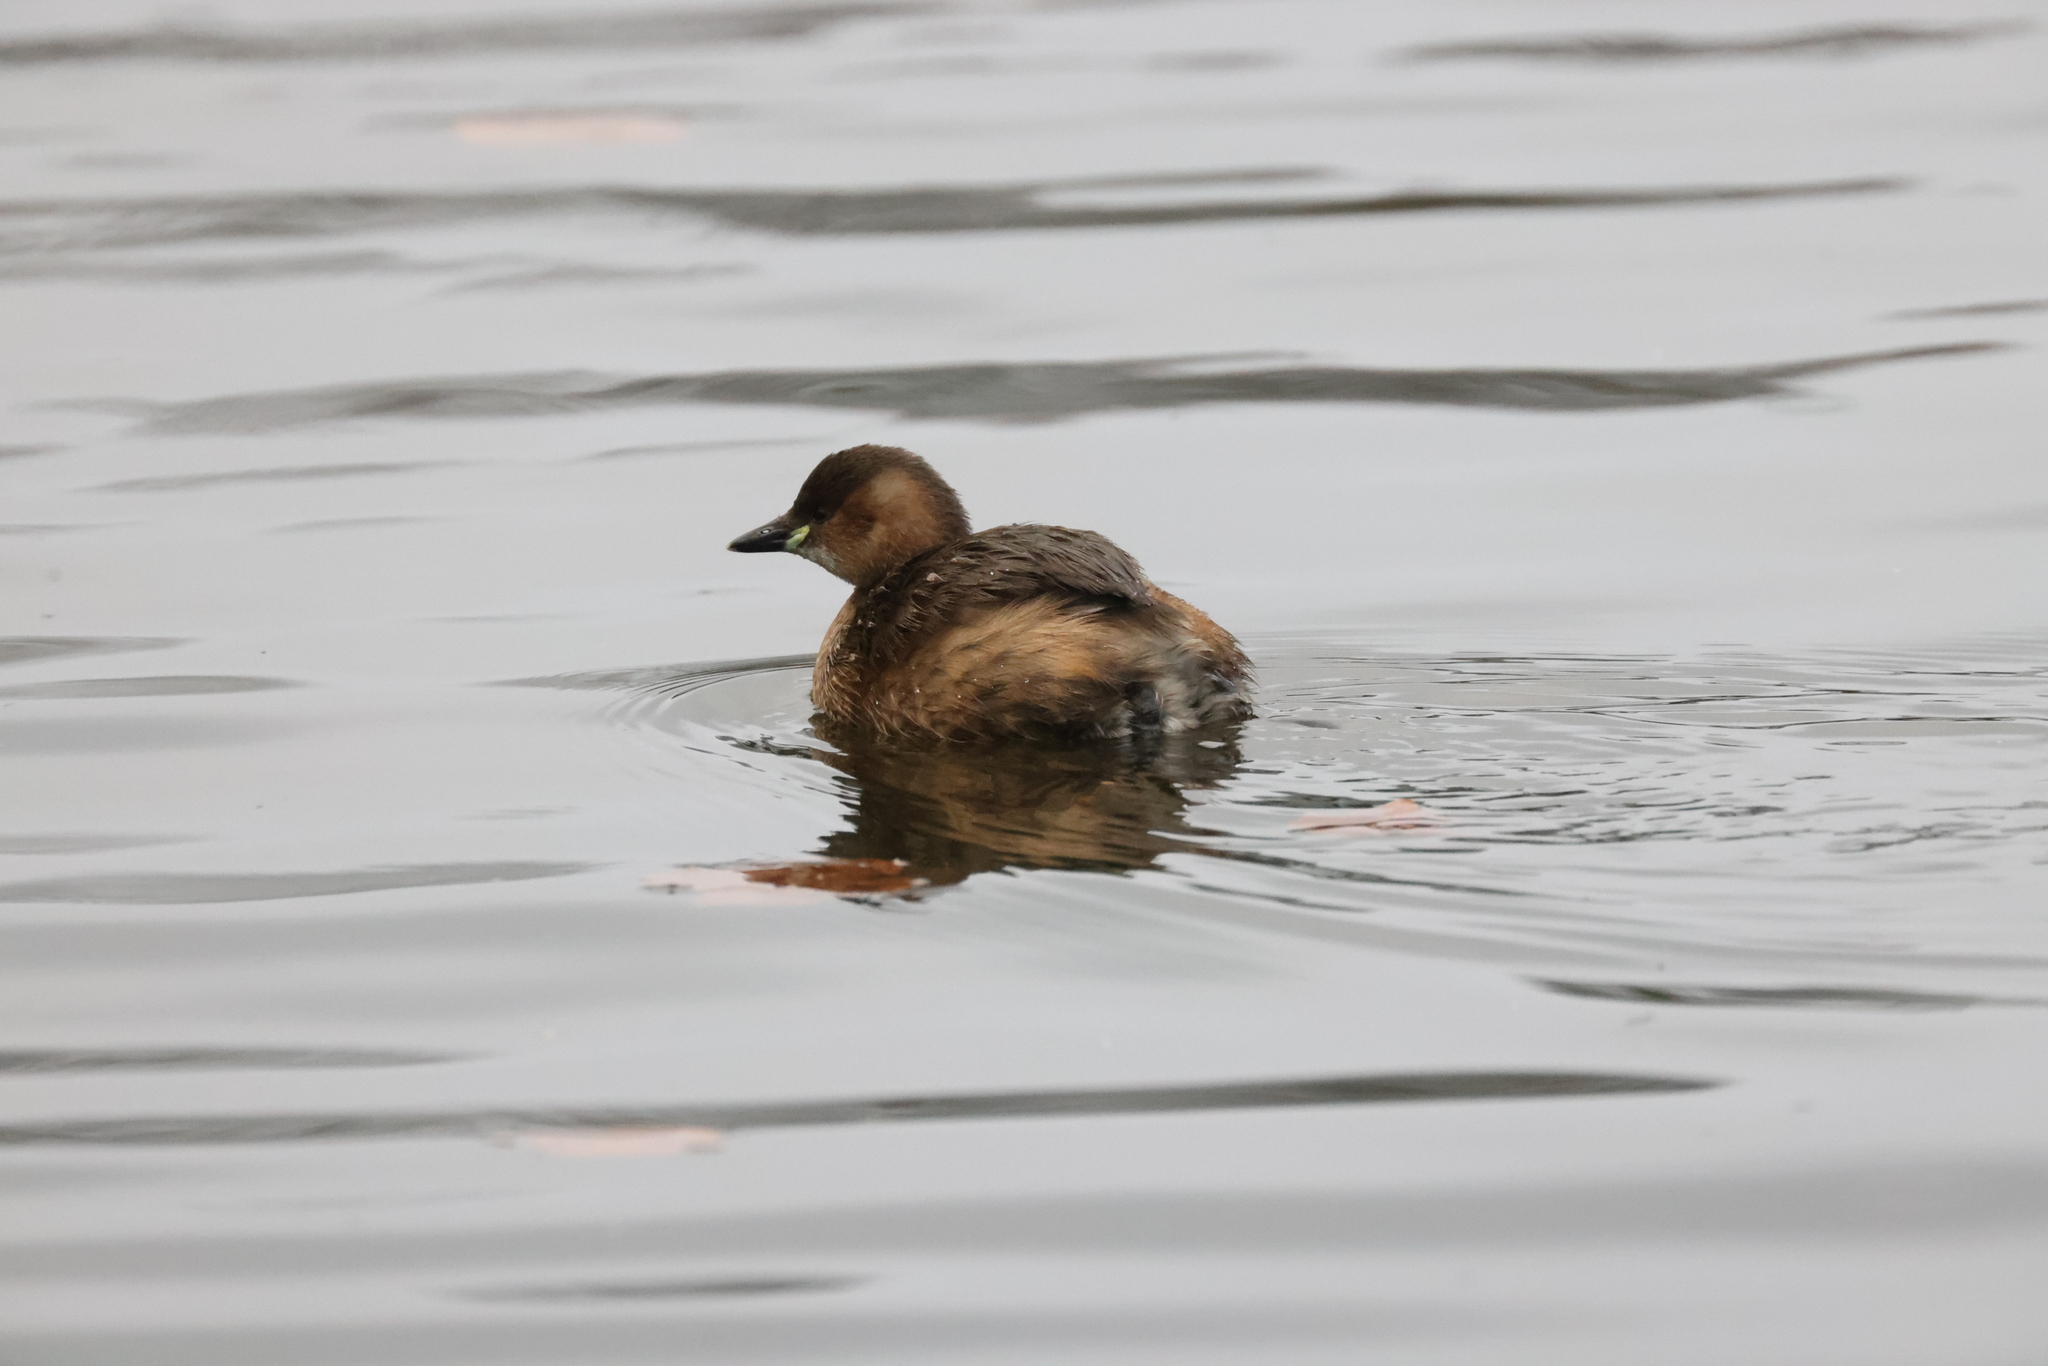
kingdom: Animalia
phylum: Chordata
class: Aves
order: Podicipediformes
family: Podicipedidae
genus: Tachybaptus
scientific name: Tachybaptus ruficollis
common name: Little grebe
